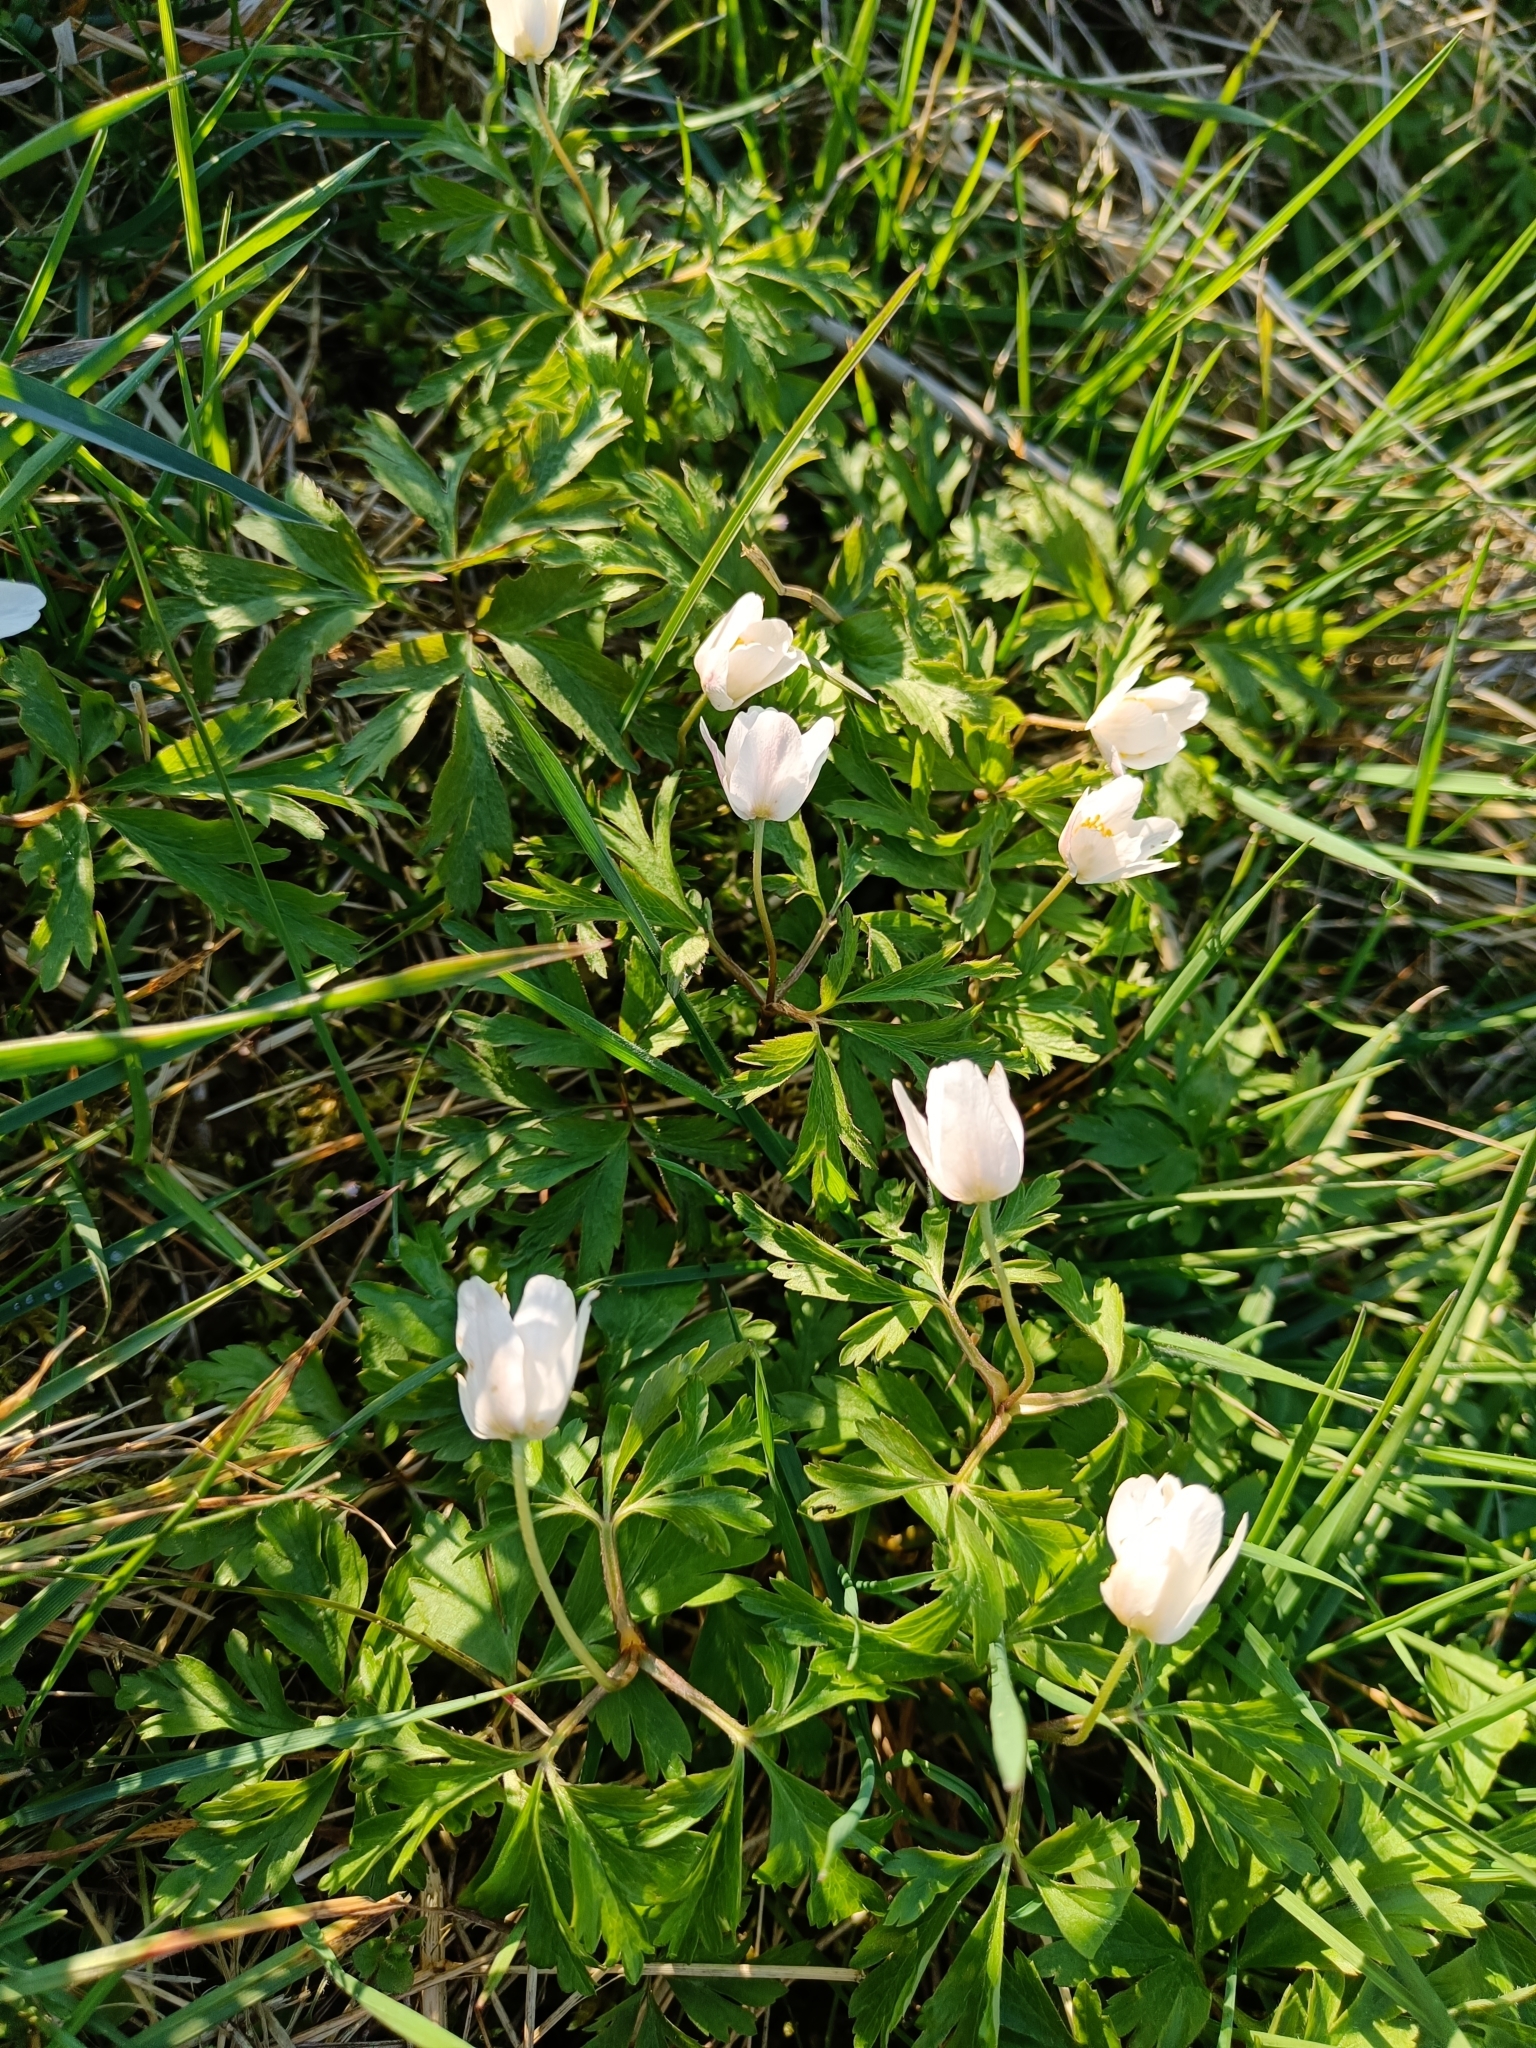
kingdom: Plantae
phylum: Tracheophyta
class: Magnoliopsida
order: Ranunculales
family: Ranunculaceae
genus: Anemone
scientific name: Anemone nemorosa
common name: Wood anemone
